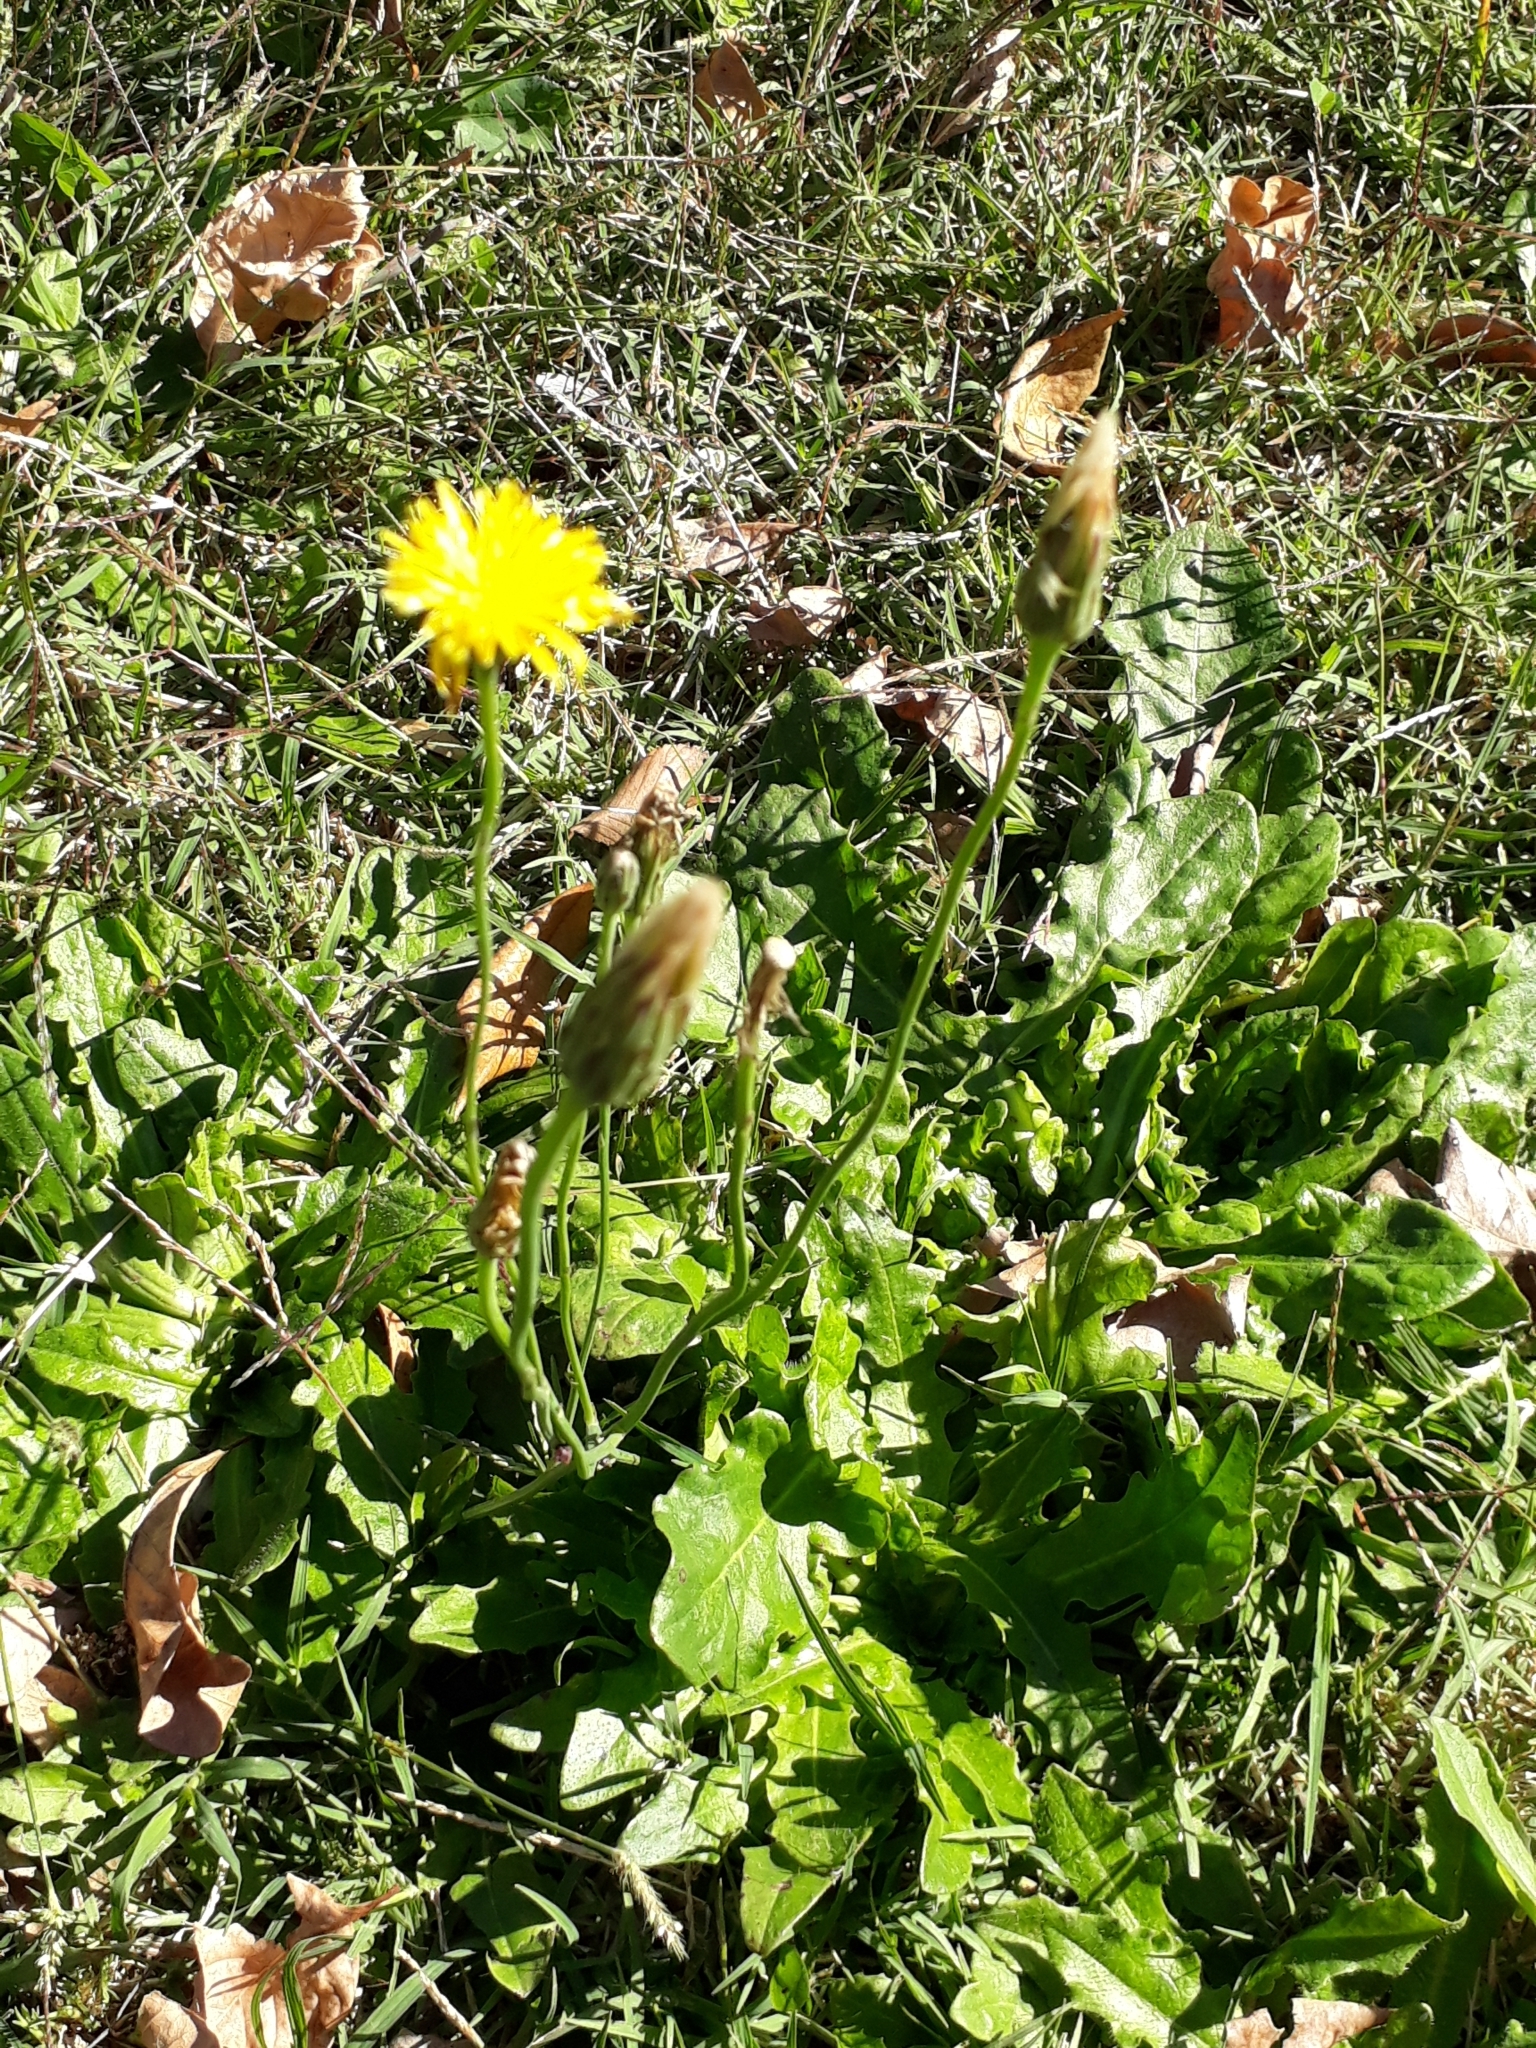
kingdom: Plantae
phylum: Tracheophyta
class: Magnoliopsida
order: Asterales
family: Asteraceae
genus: Hypochaeris
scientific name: Hypochaeris radicata
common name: Flatweed
